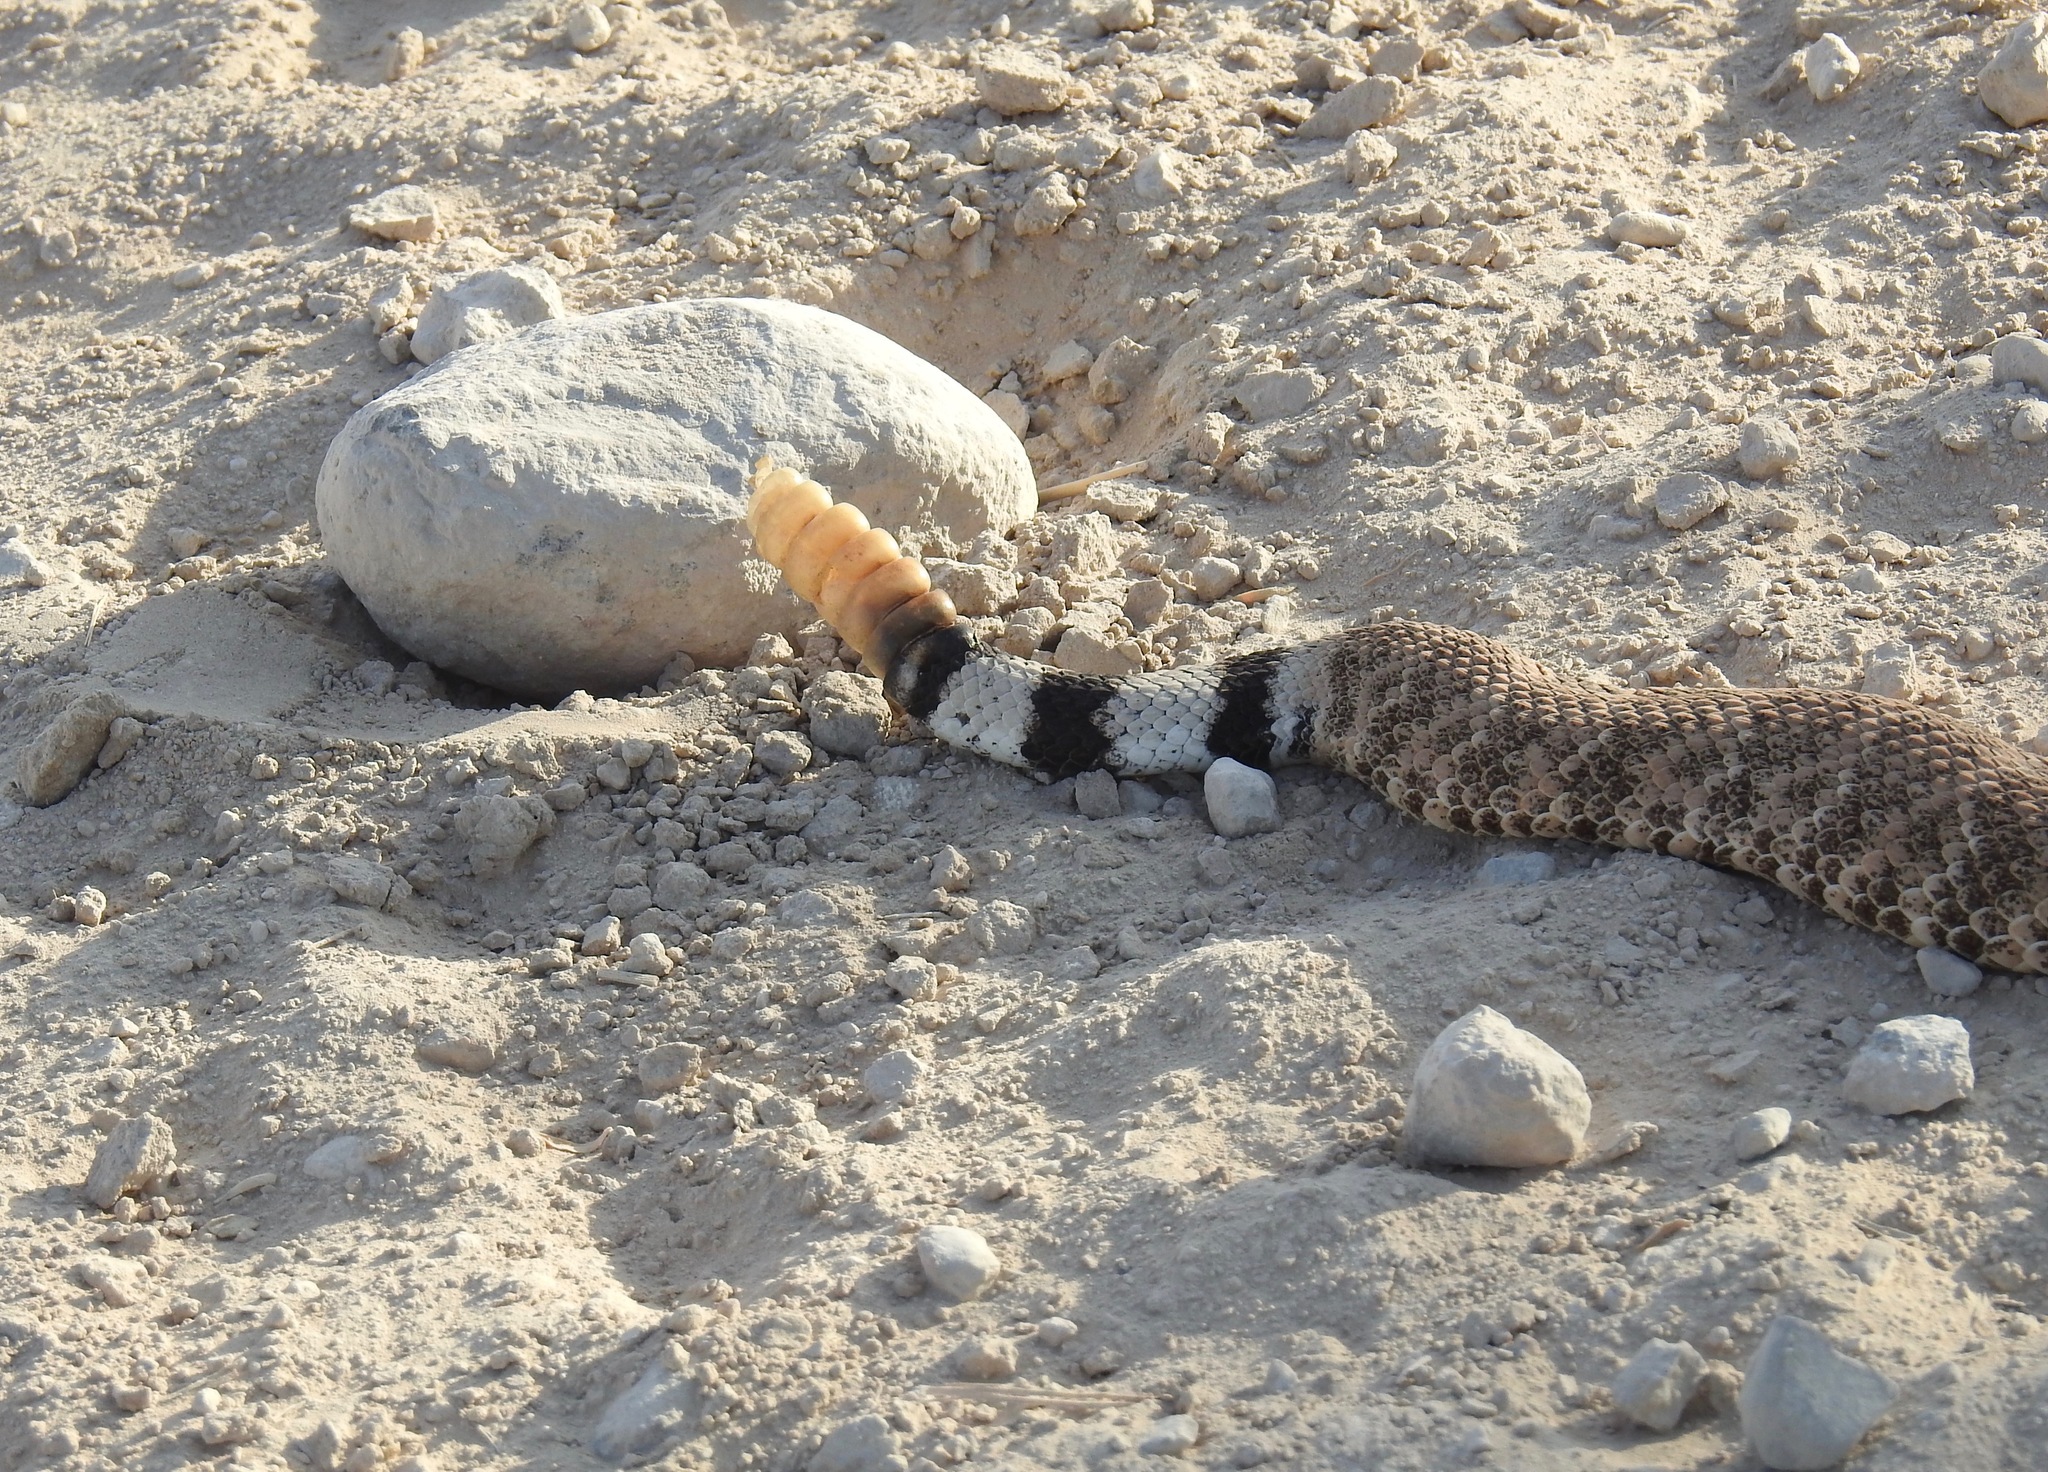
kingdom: Animalia
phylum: Chordata
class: Squamata
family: Viperidae
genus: Crotalus
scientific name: Crotalus atrox
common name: Western diamond-backed rattlesnake
